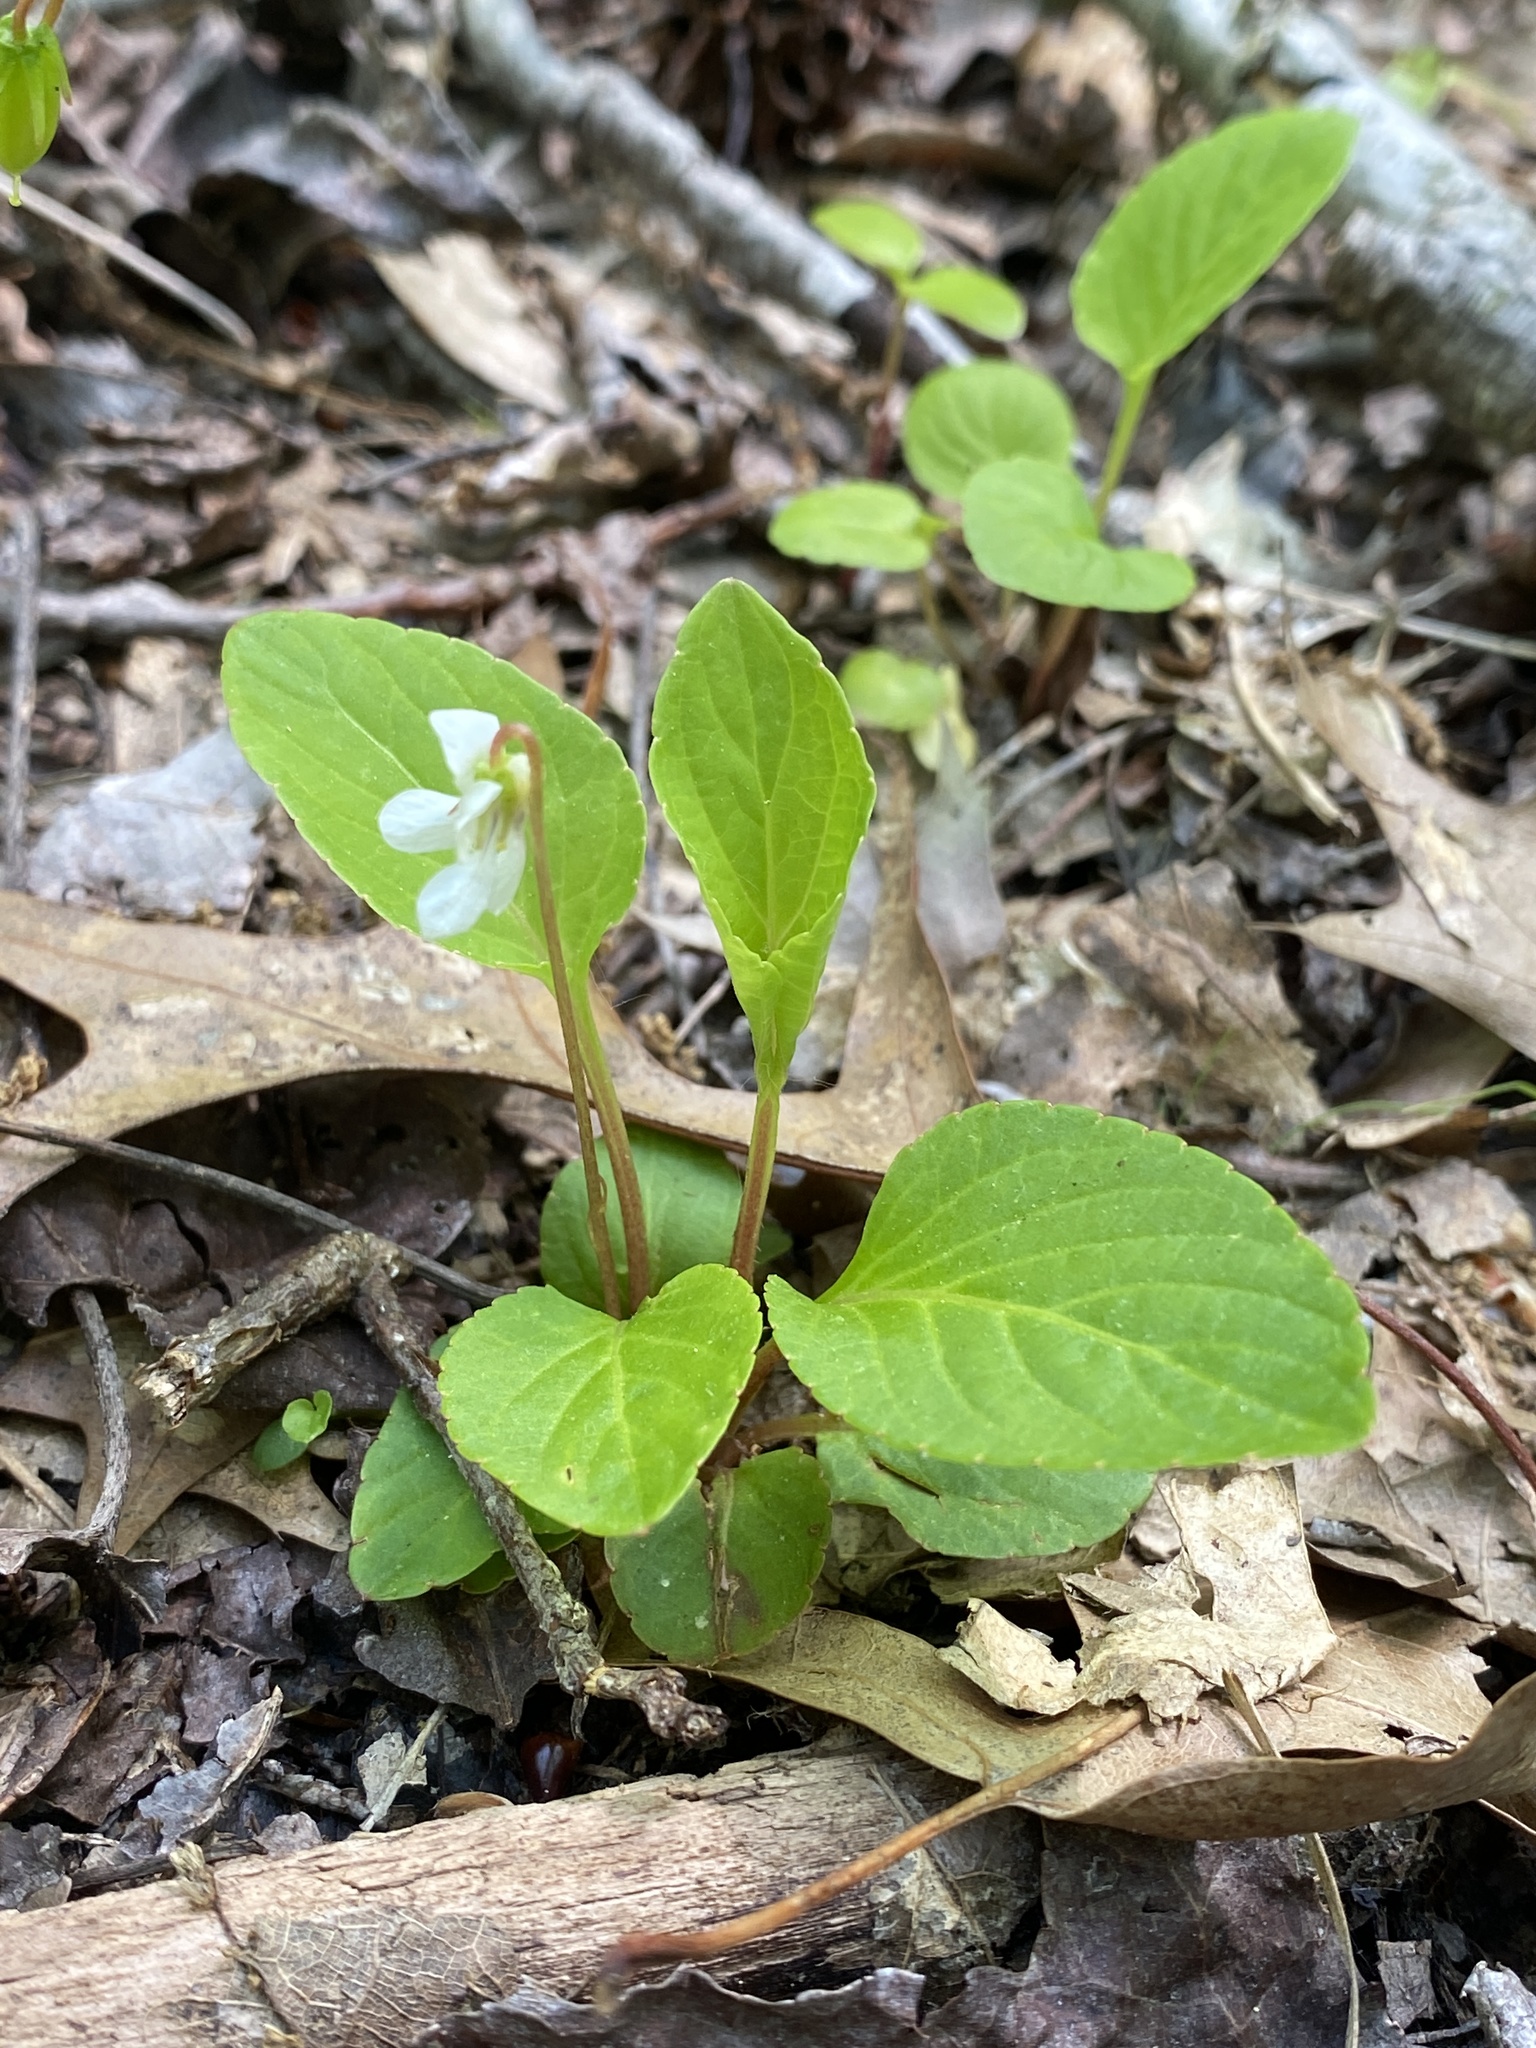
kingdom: Plantae
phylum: Tracheophyta
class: Magnoliopsida
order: Malpighiales
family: Violaceae
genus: Viola
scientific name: Viola primulifolia
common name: Primrose-leaf violet
